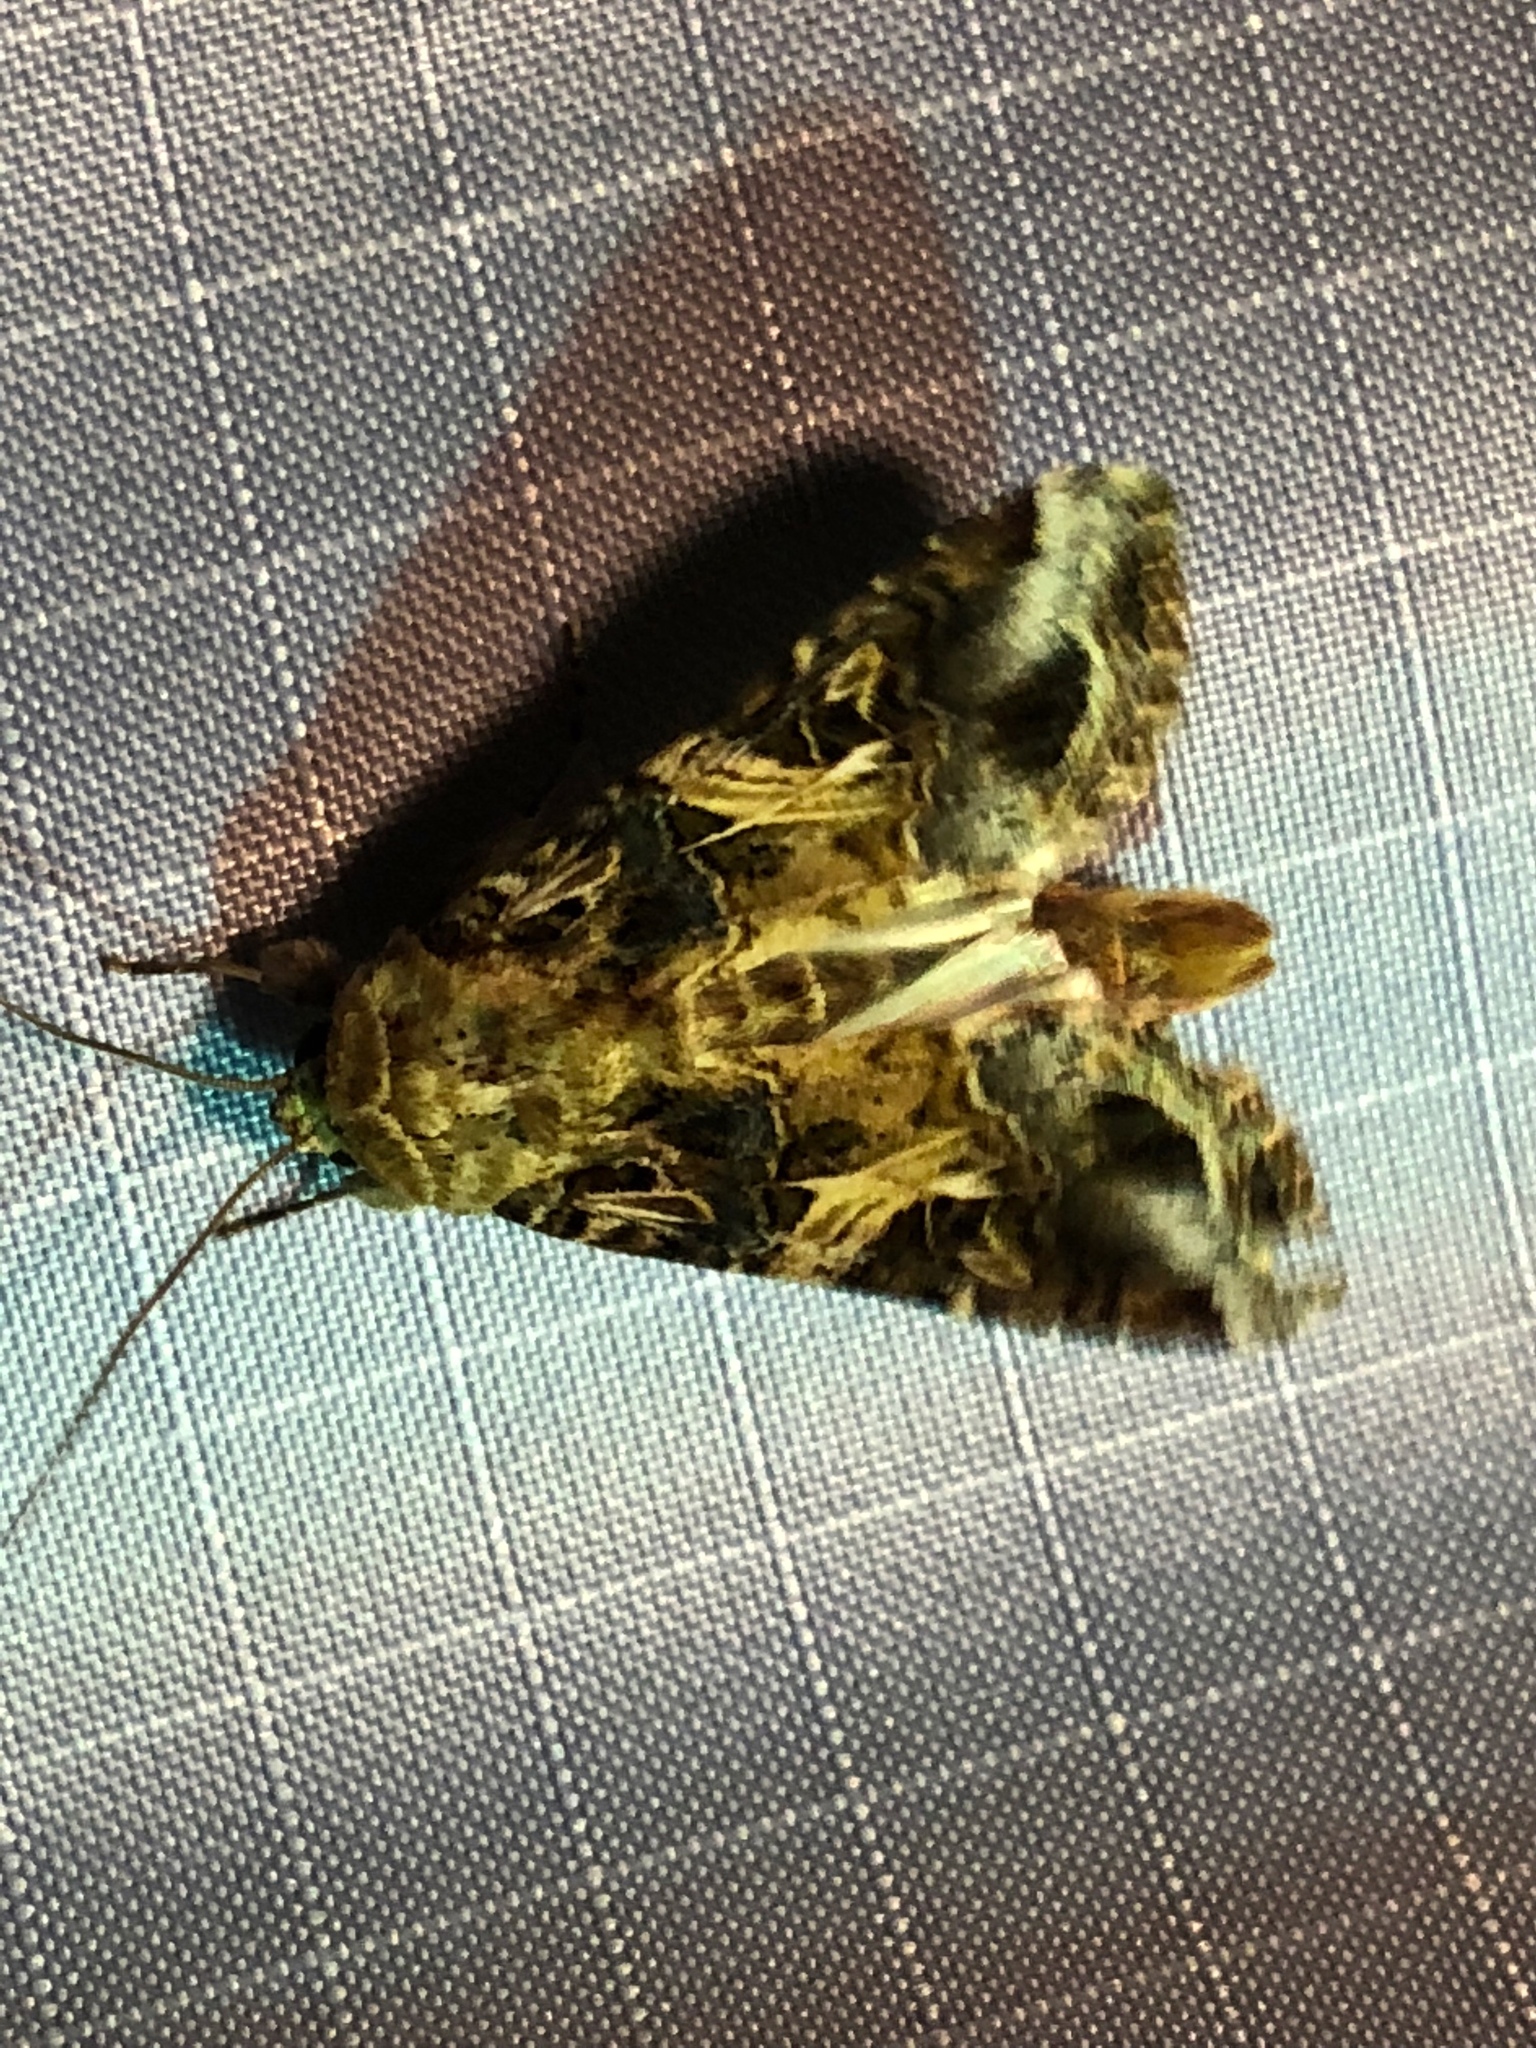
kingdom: Animalia
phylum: Arthropoda
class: Insecta
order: Lepidoptera
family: Noctuidae
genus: Spodoptera
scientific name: Spodoptera ornithogalli
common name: Yellow-striped armyworm
